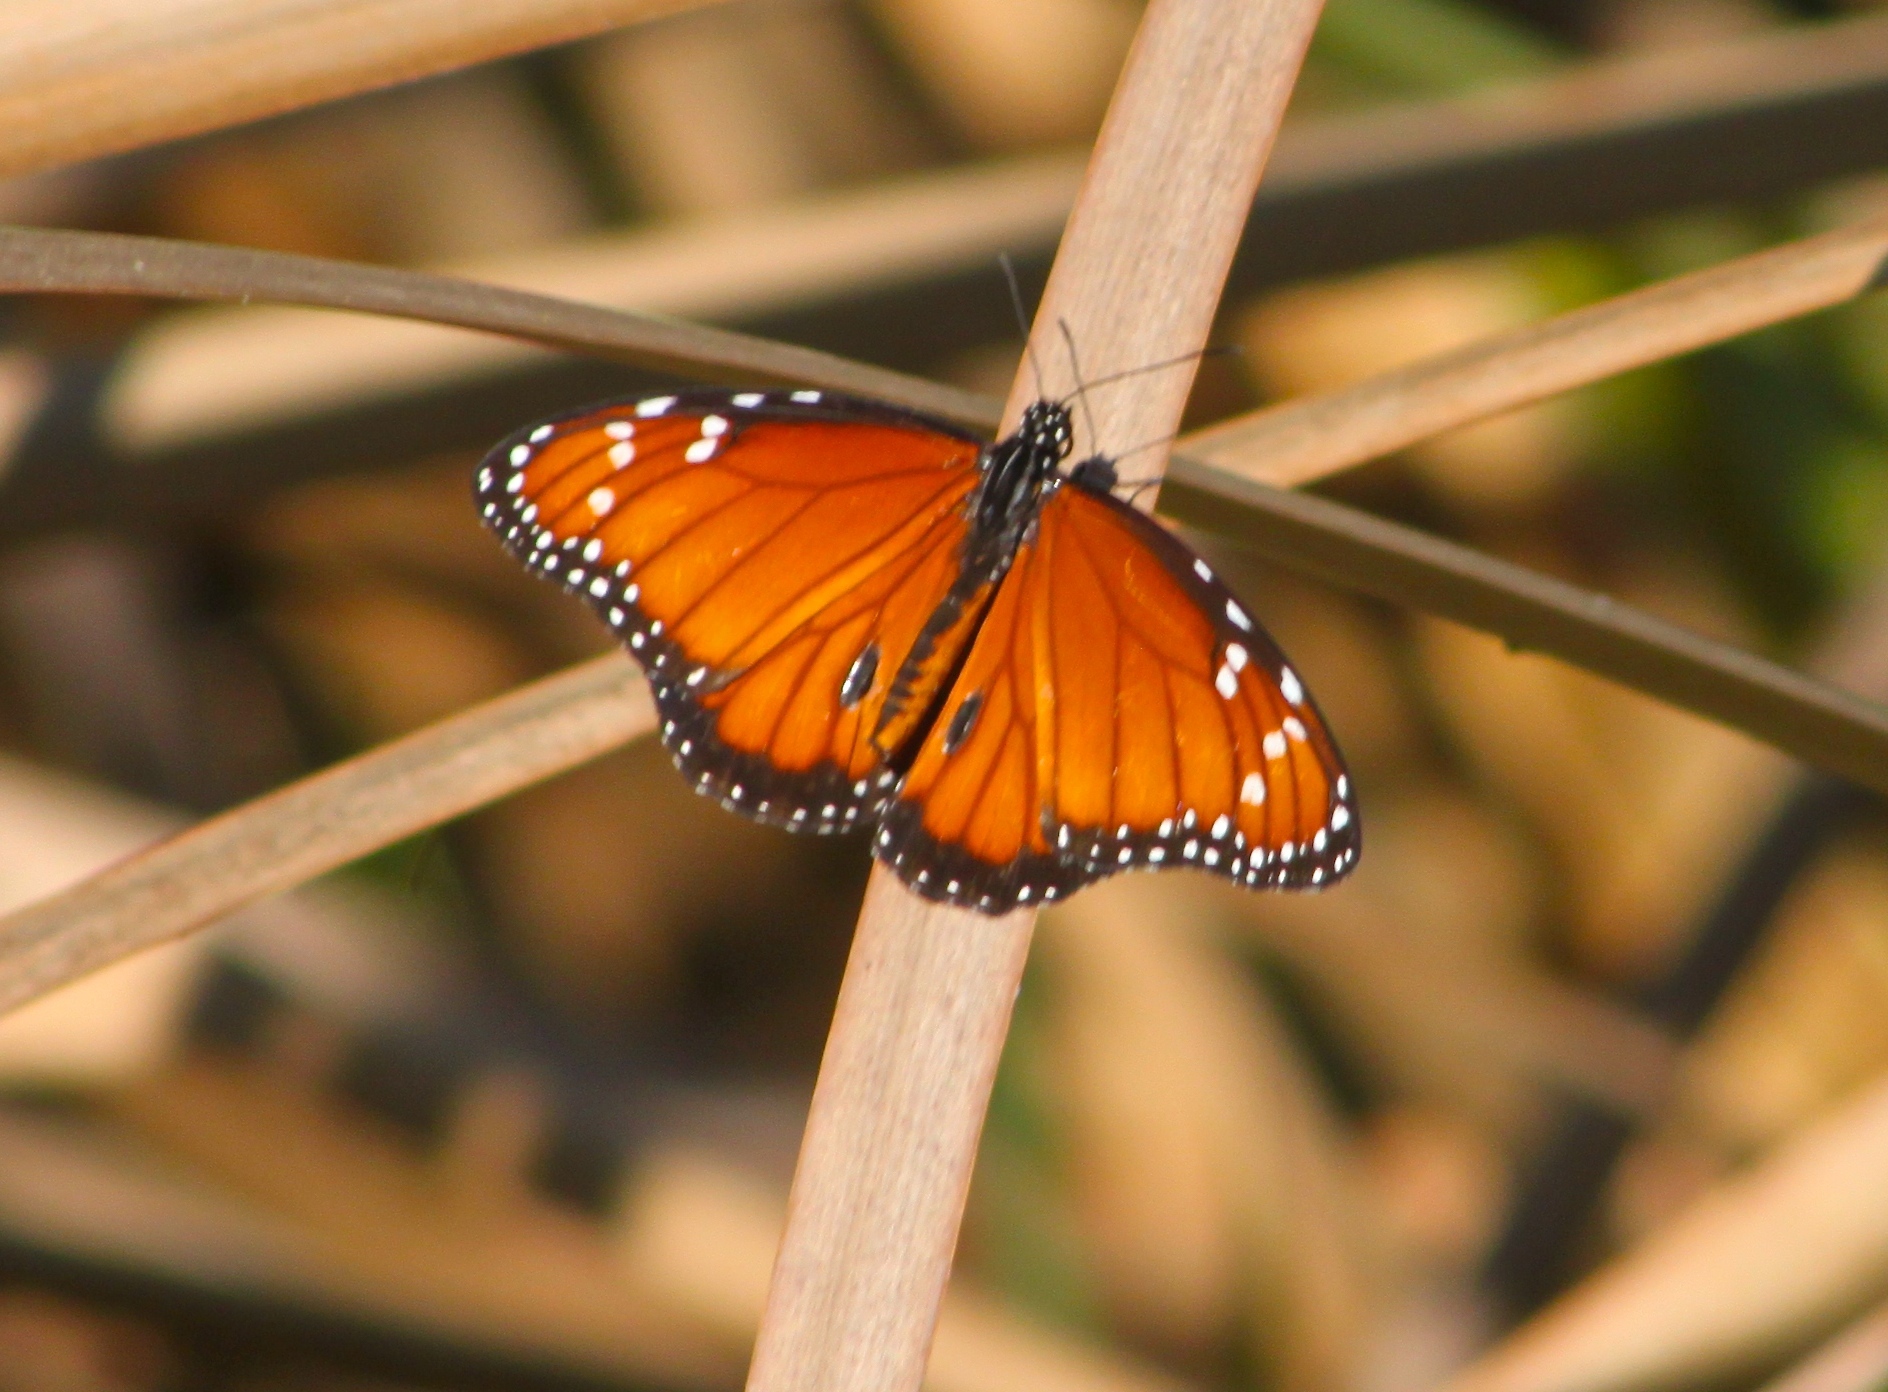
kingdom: Animalia
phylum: Arthropoda
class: Insecta
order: Lepidoptera
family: Nymphalidae
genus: Danaus
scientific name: Danaus eresimus
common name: Soldier
